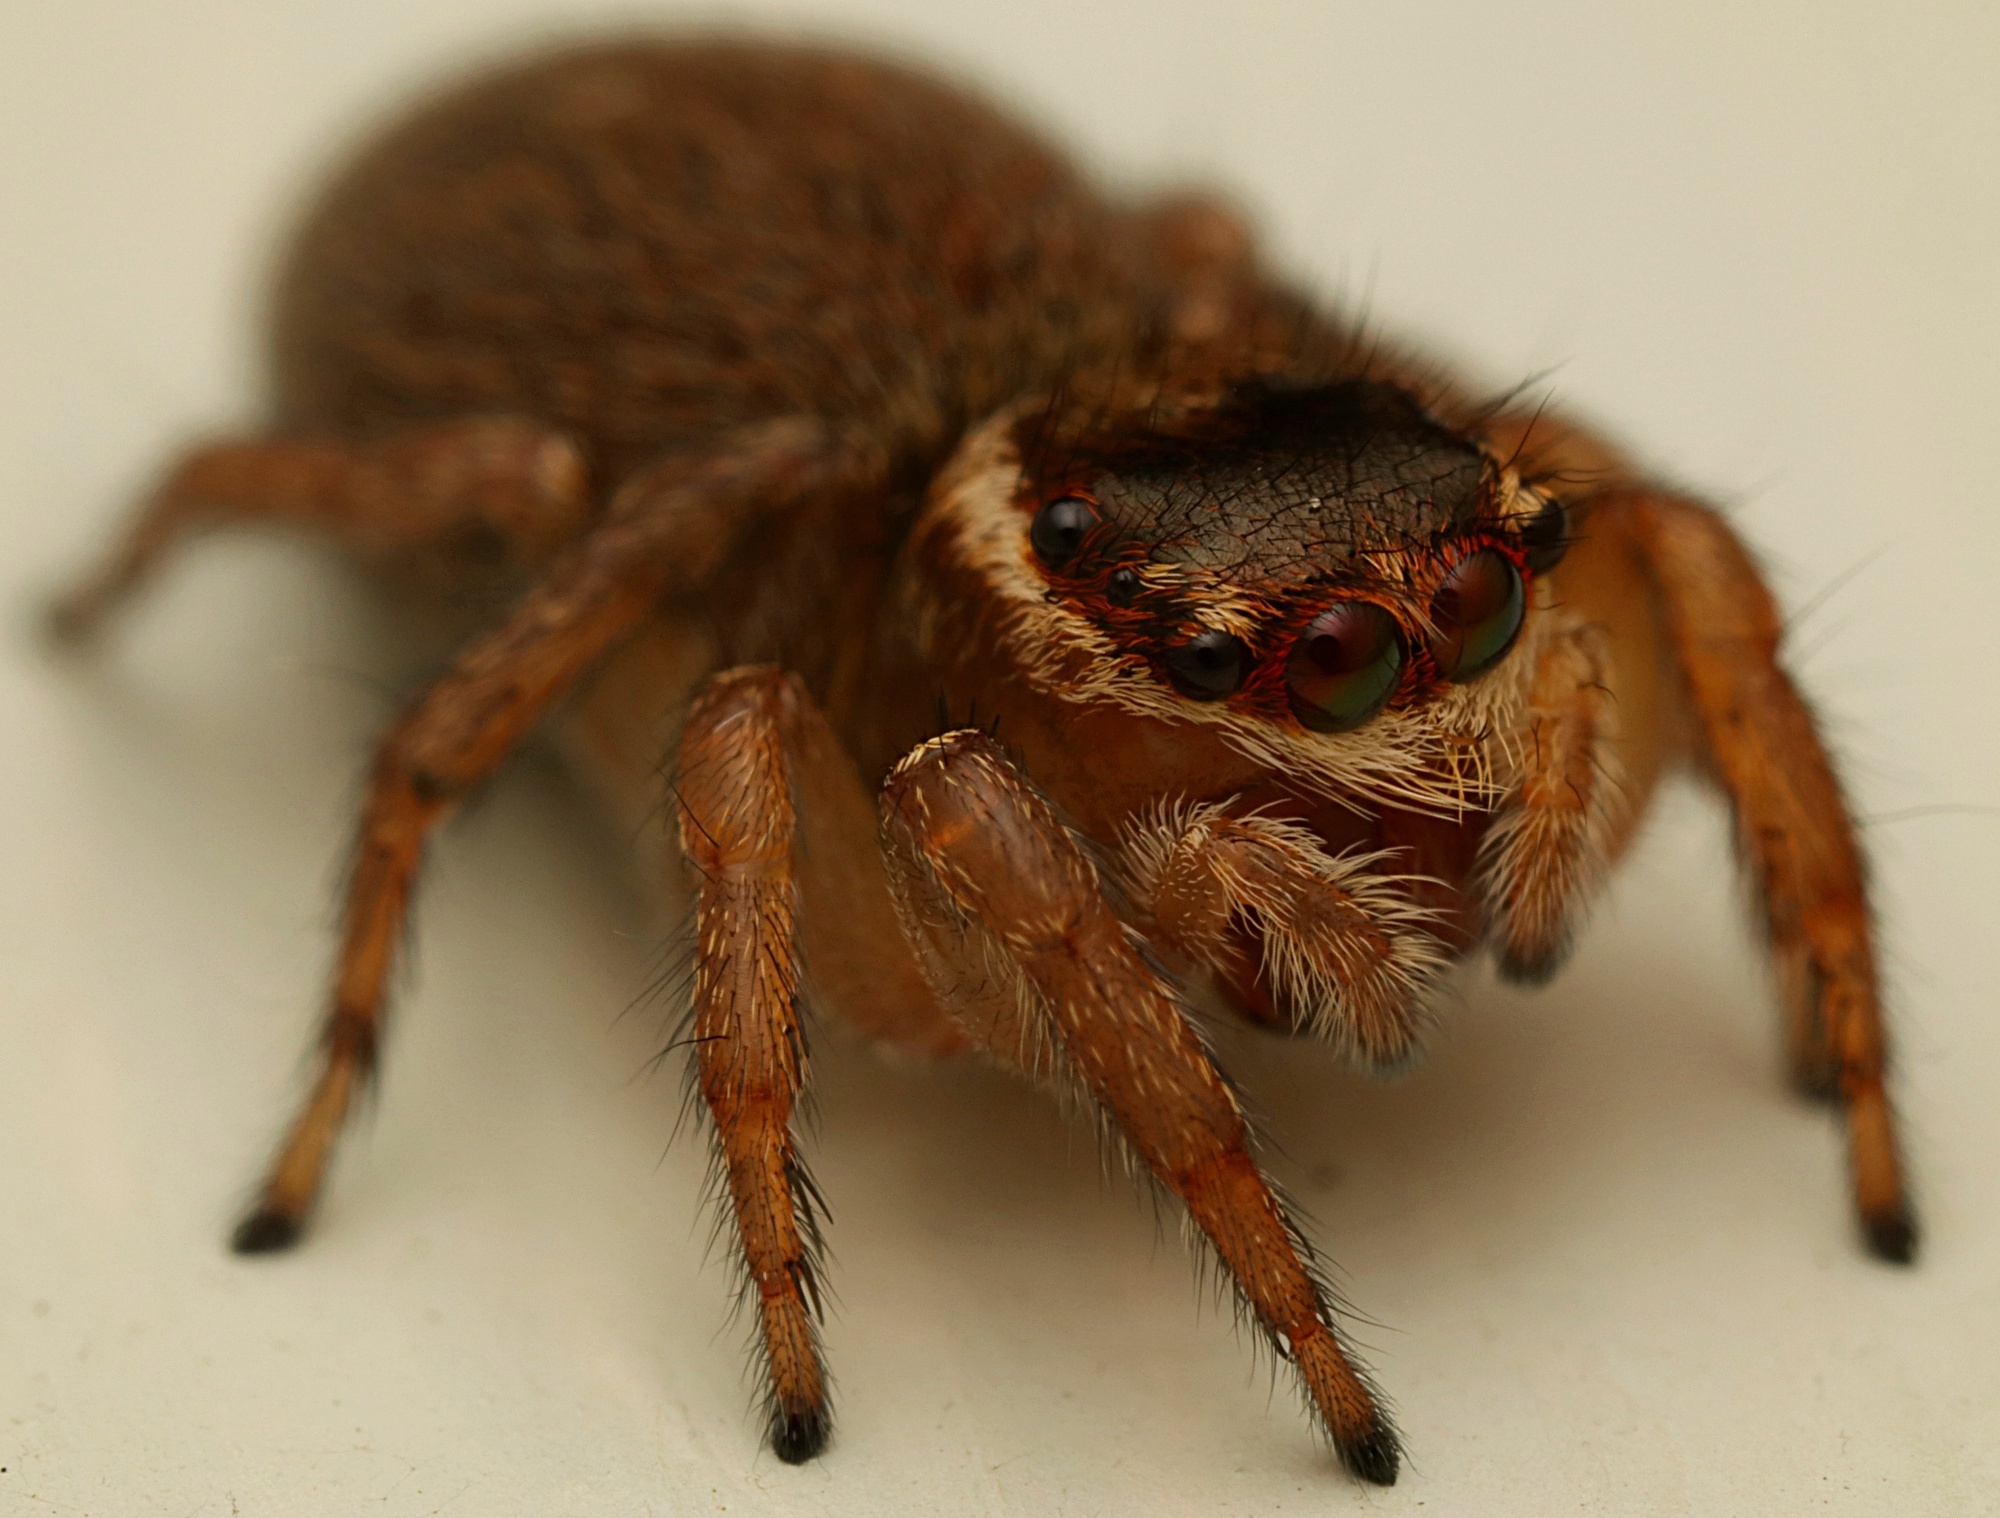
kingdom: Animalia
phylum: Arthropoda
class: Arachnida
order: Araneae
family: Salticidae
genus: Maratus
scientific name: Maratus griseus
